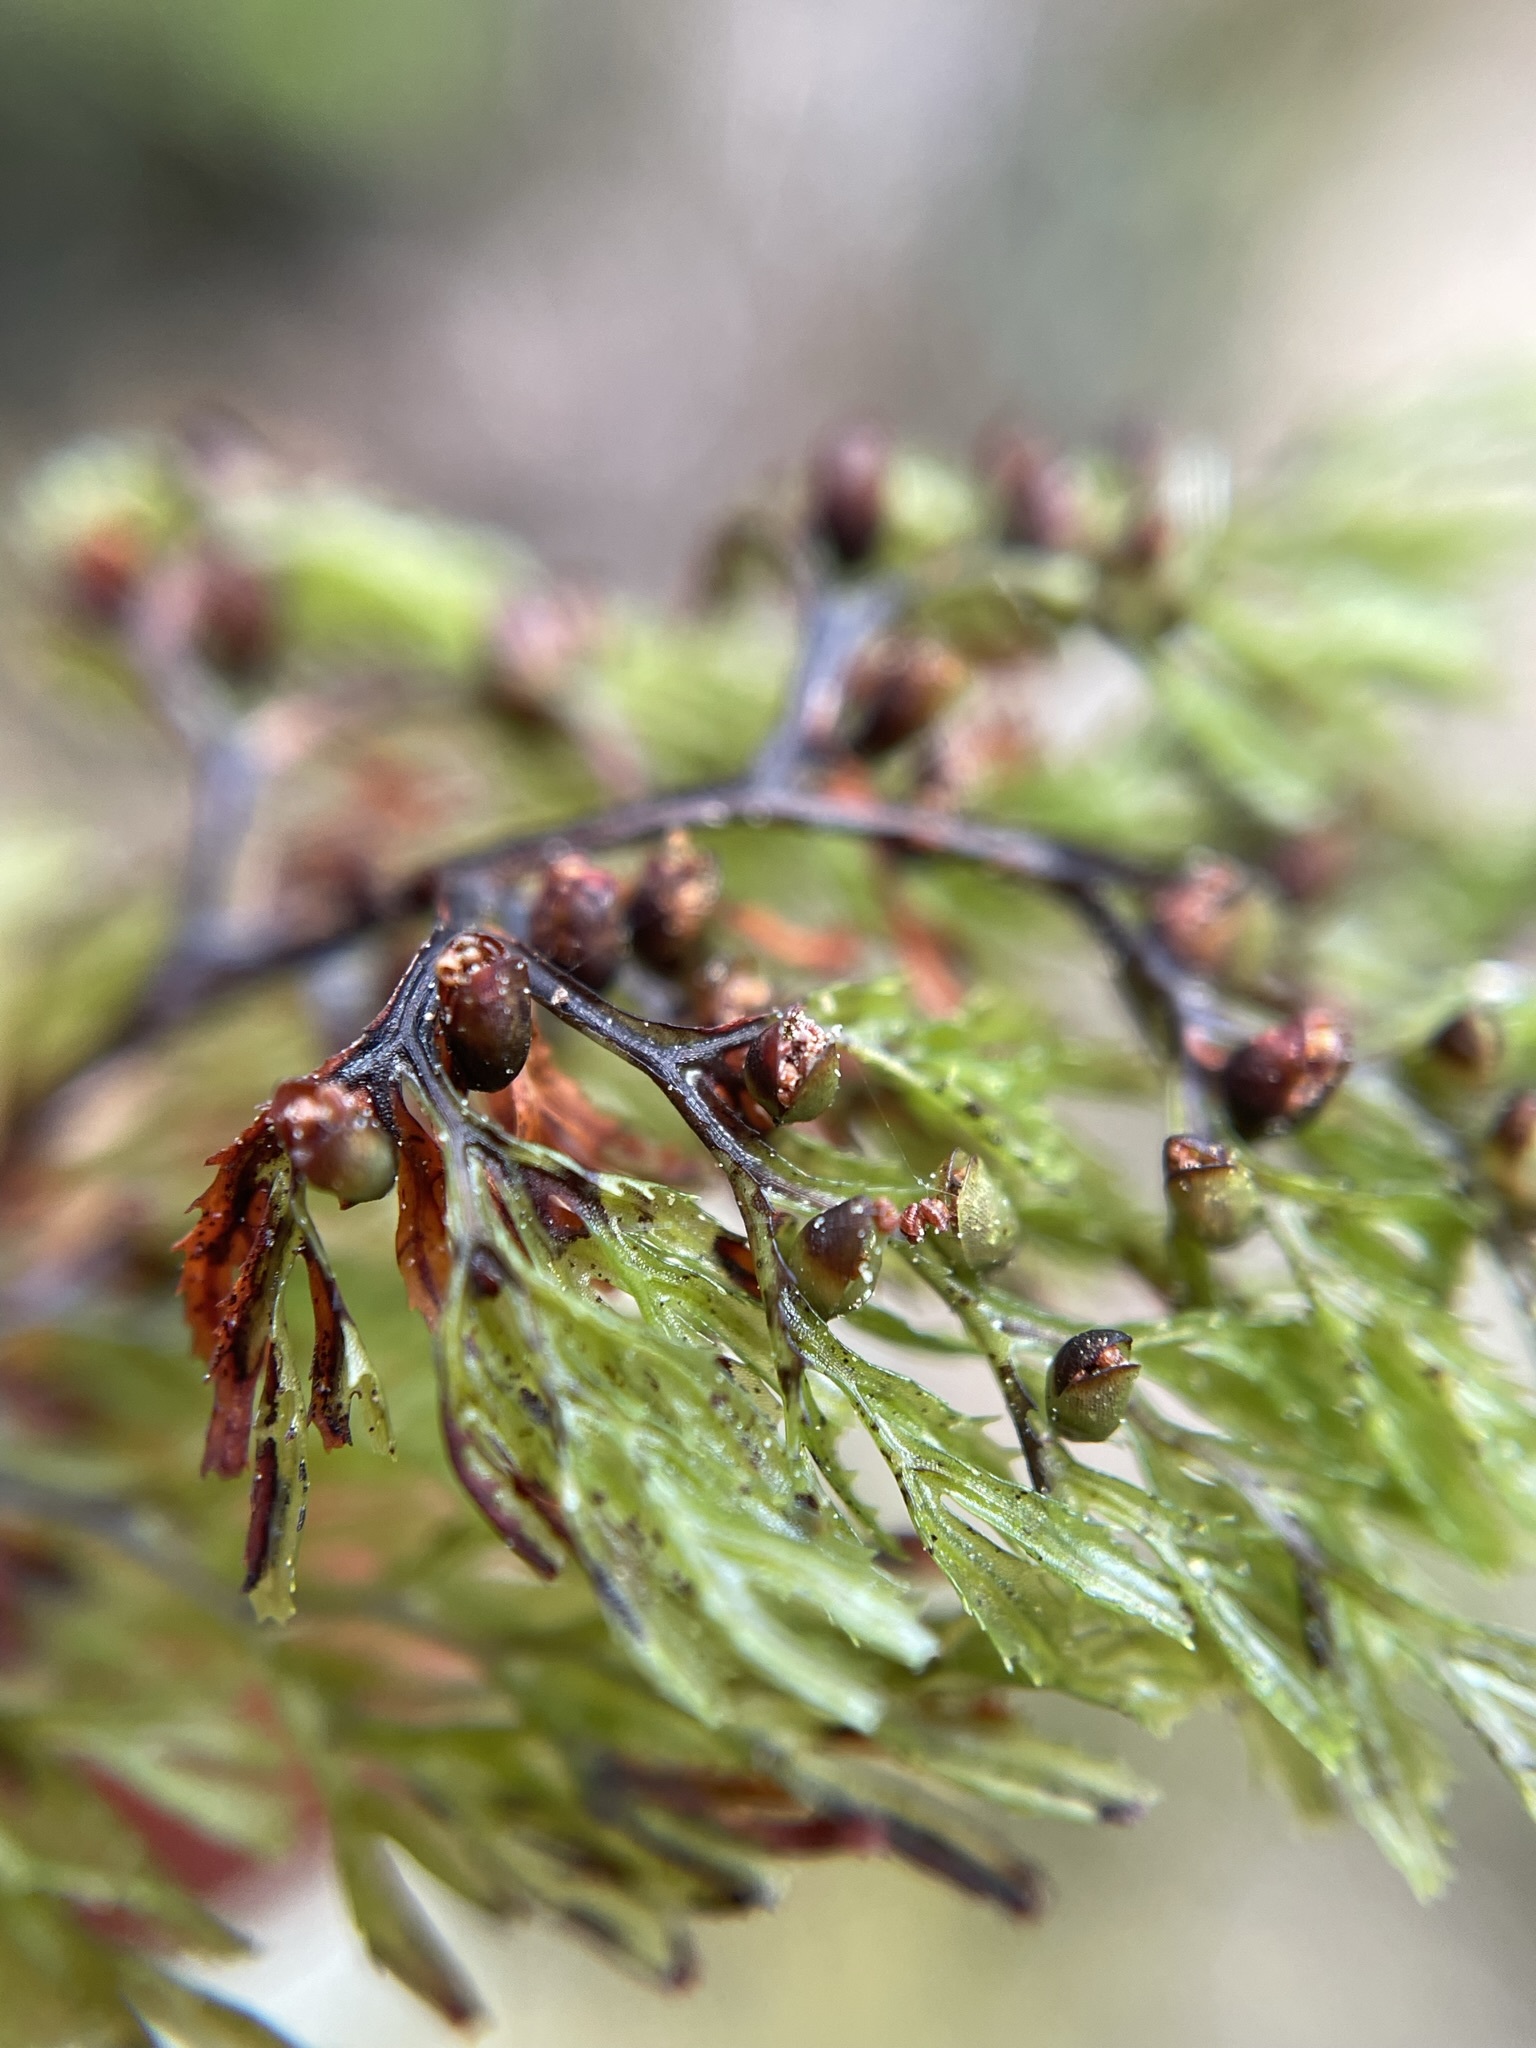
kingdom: Plantae
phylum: Tracheophyta
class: Polypodiopsida
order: Hymenophyllales
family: Hymenophyllaceae
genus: Hymenophyllum
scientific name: Hymenophyllum multifidum
